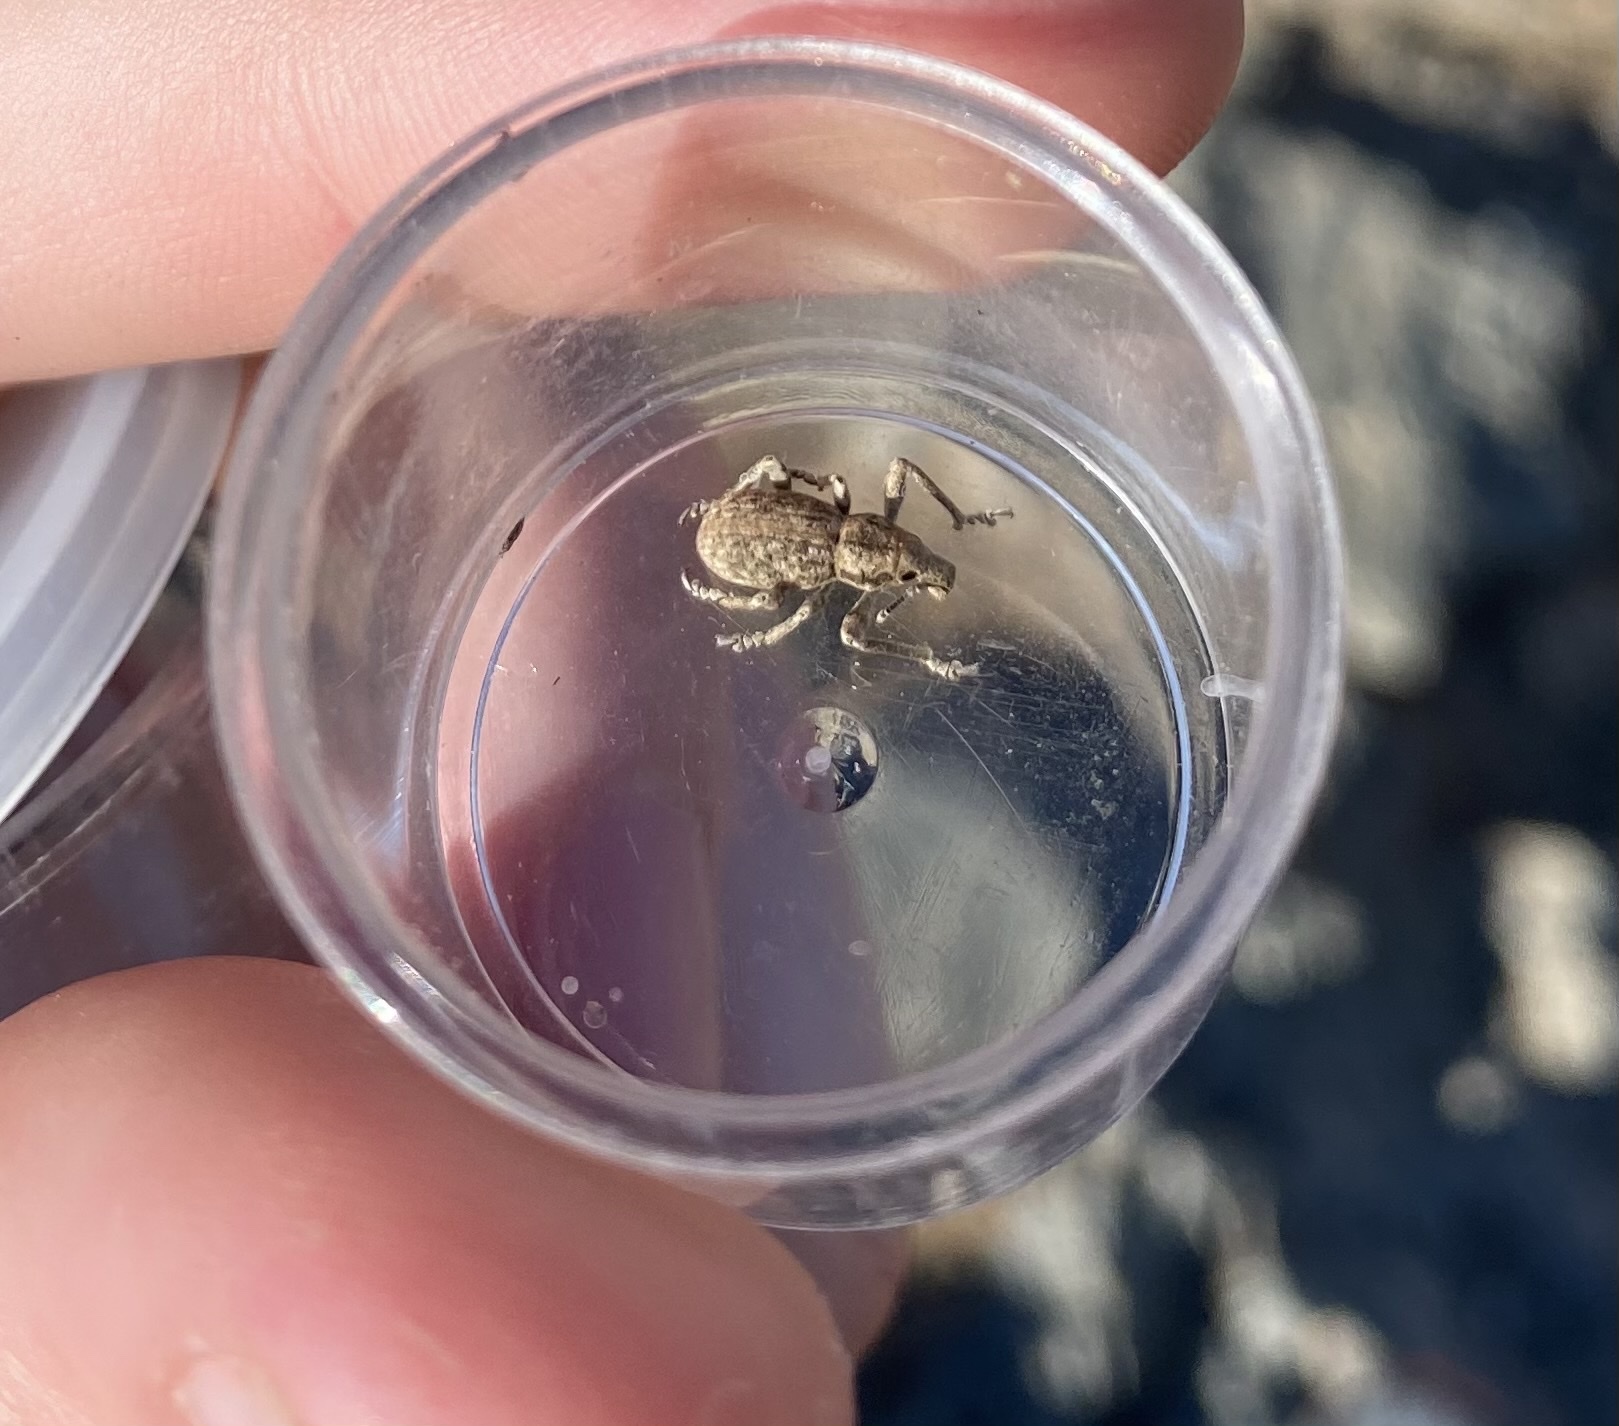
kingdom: Animalia
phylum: Arthropoda
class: Insecta
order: Coleoptera
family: Curculionidae
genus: Ophryastes
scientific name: Ophryastes
